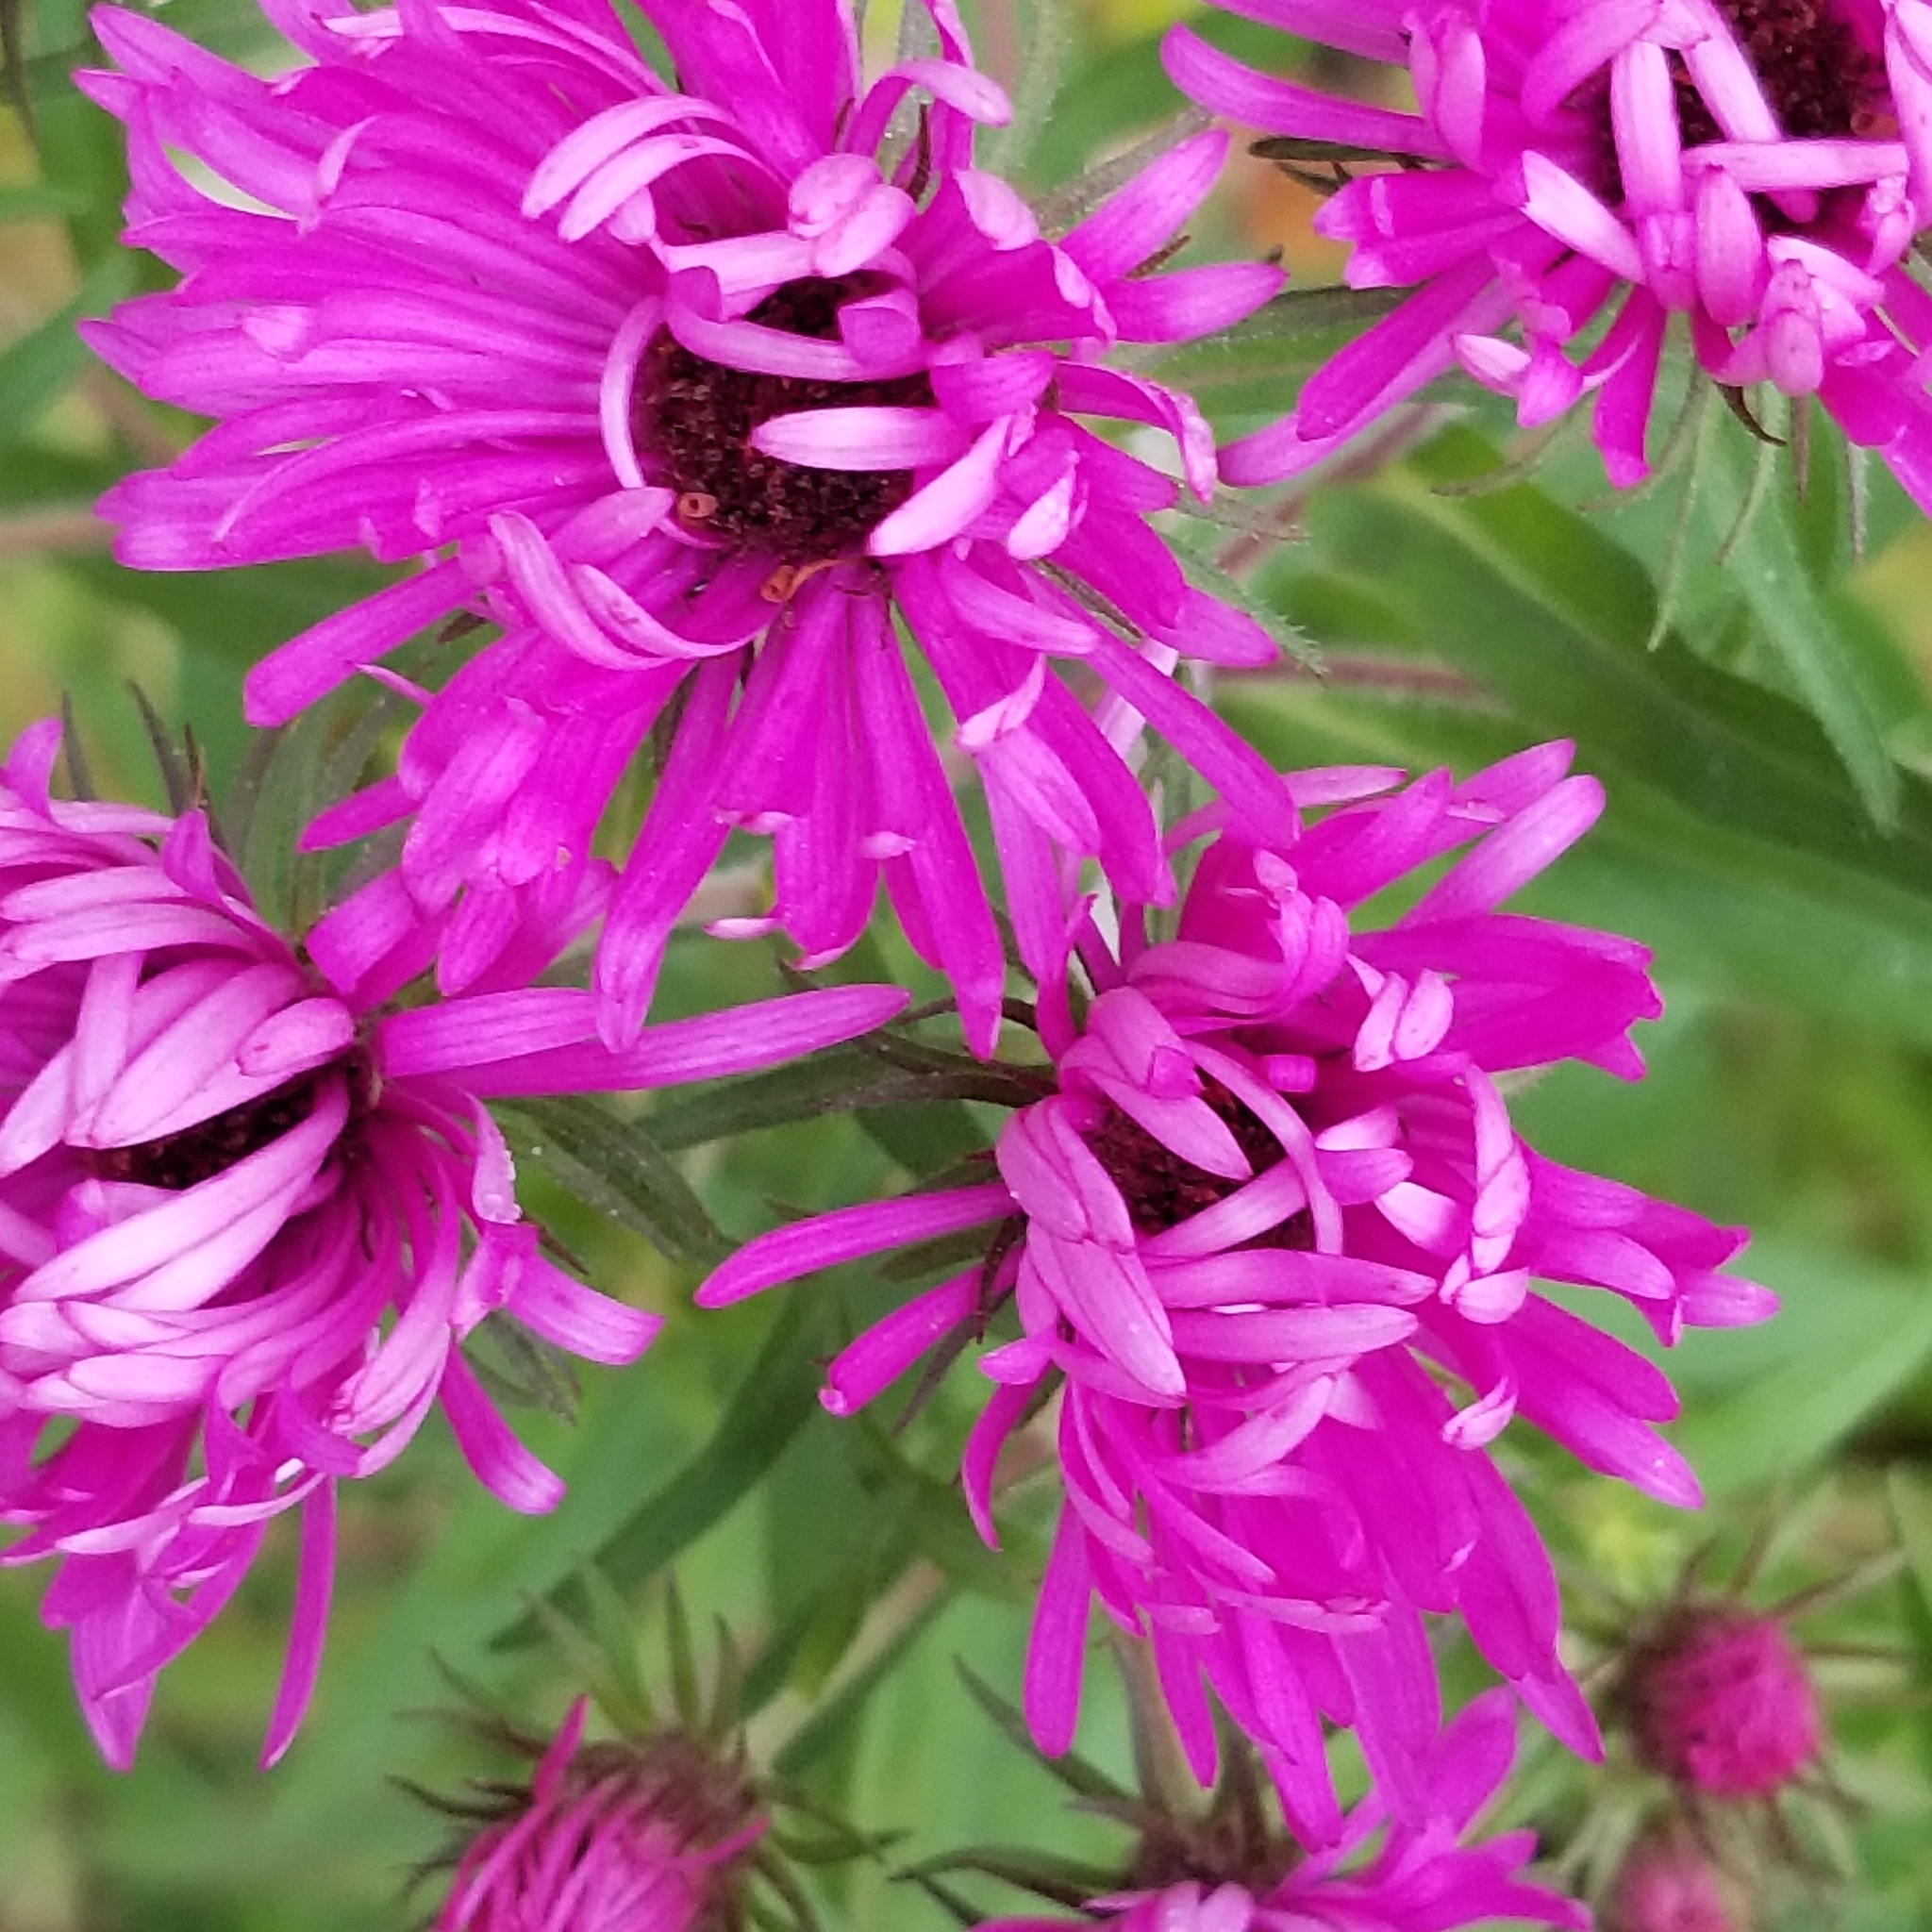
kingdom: Plantae
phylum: Tracheophyta
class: Magnoliopsida
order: Asterales
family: Asteraceae
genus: Symphyotrichum
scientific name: Symphyotrichum novae-angliae
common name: Michaelmas daisy
